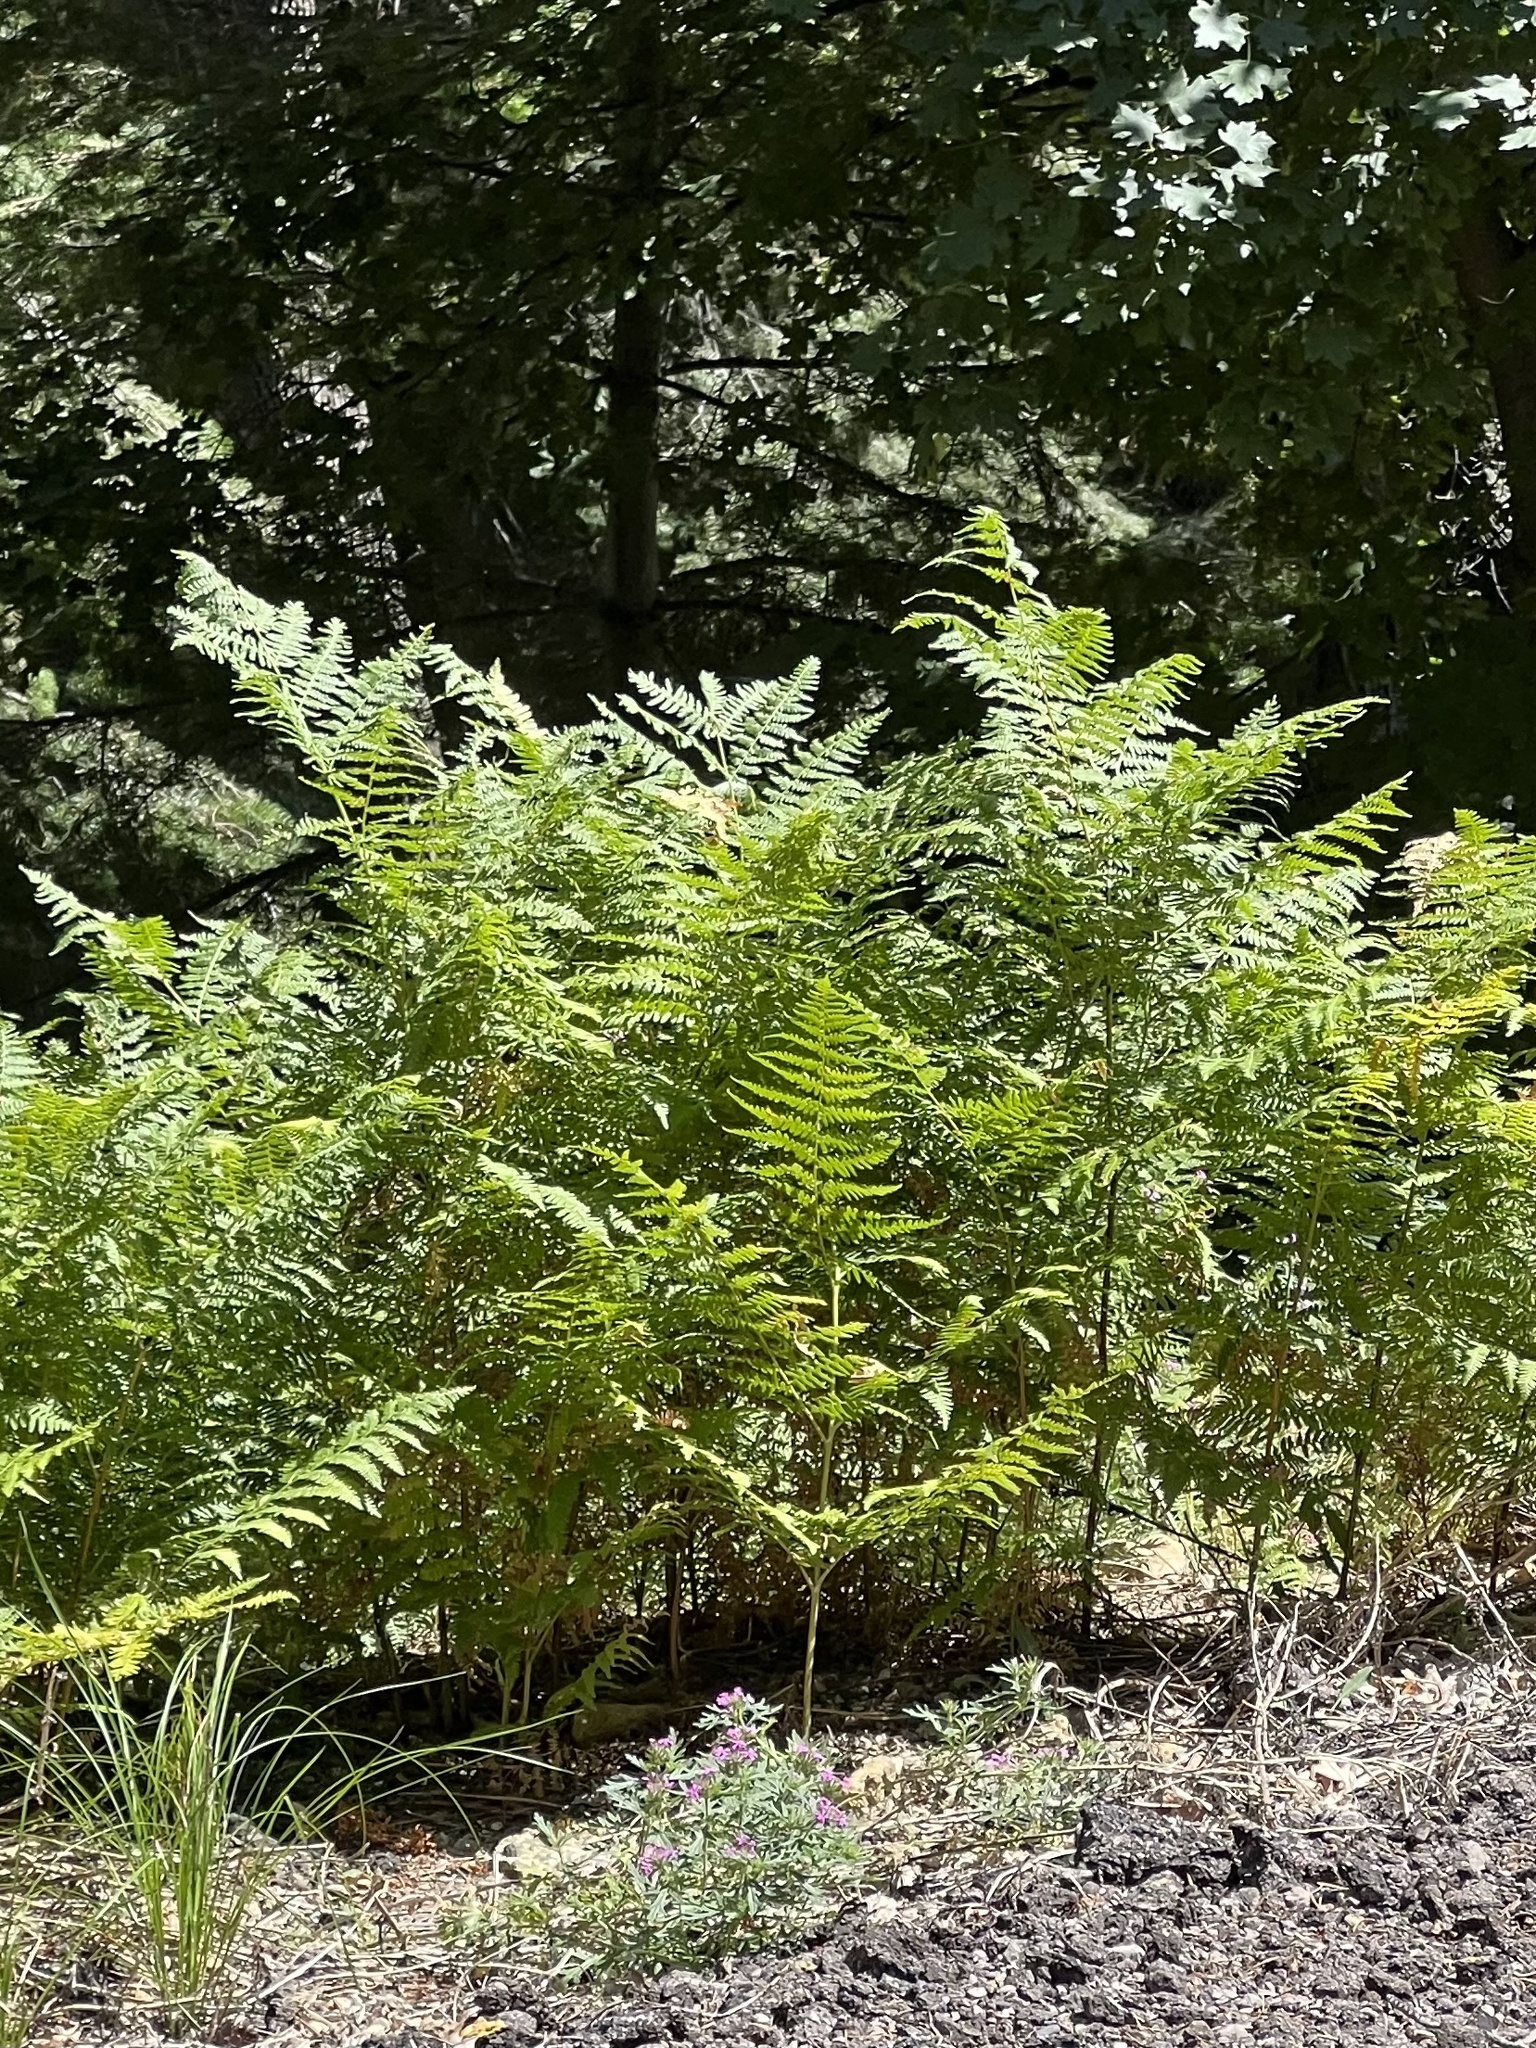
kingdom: Plantae
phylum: Tracheophyta
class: Polypodiopsida
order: Polypodiales
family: Dennstaedtiaceae
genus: Pteridium
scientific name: Pteridium aquilinum
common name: Bracken
